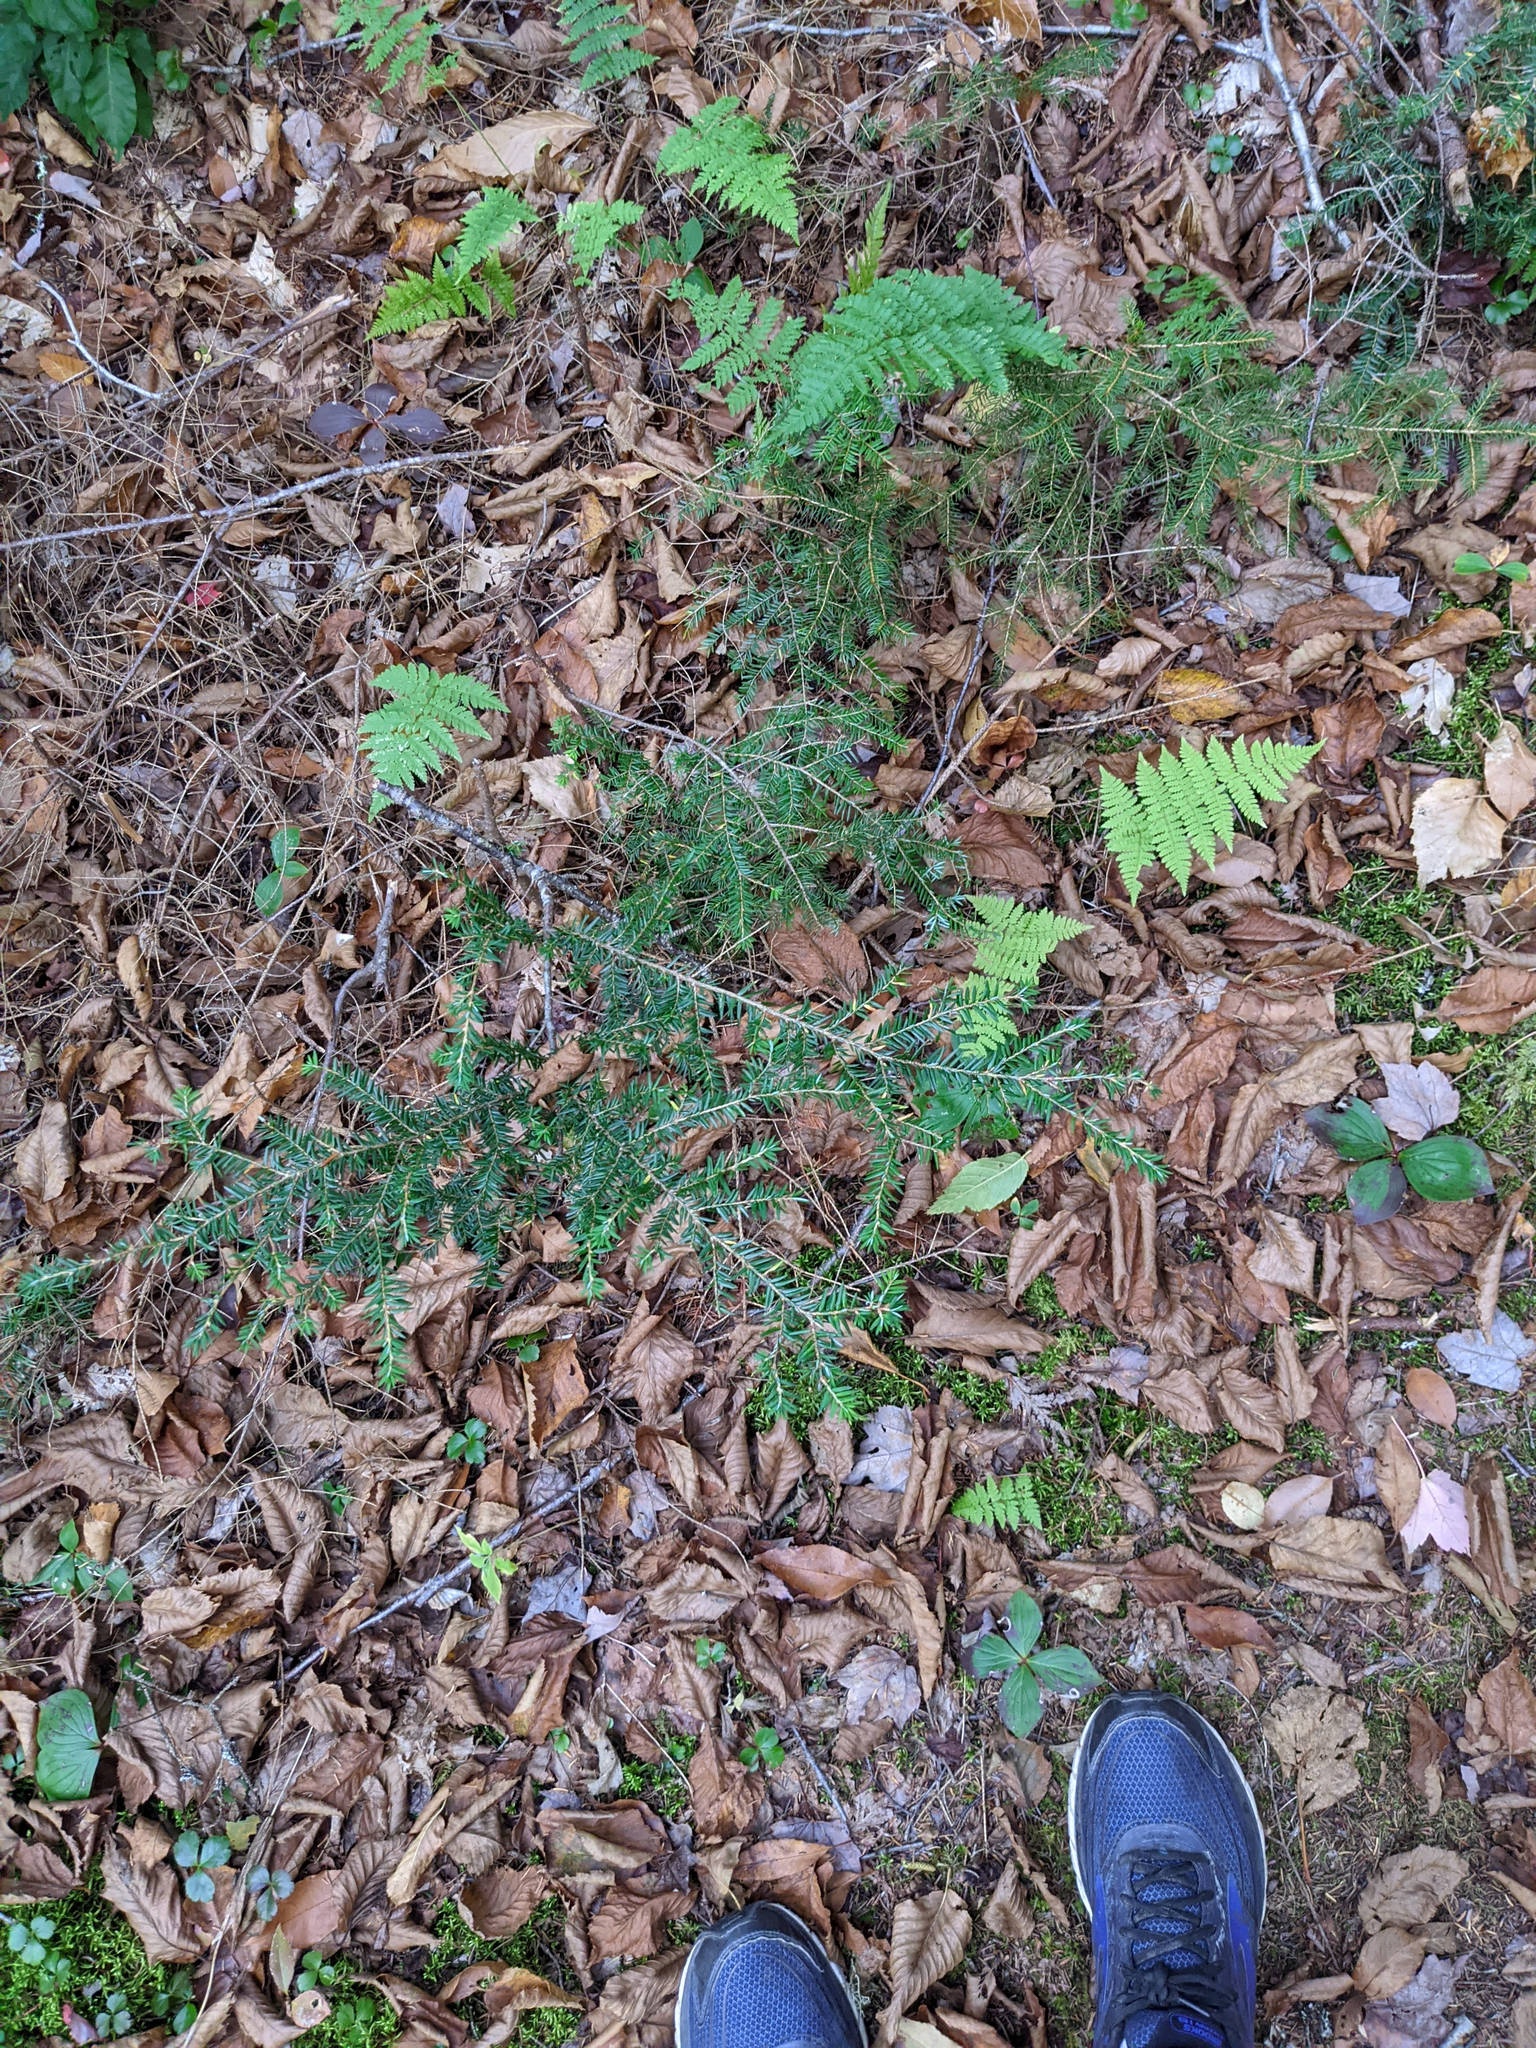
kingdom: Plantae
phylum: Tracheophyta
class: Pinopsida
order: Pinales
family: Pinaceae
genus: Tsuga
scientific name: Tsuga canadensis
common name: Eastern hemlock
